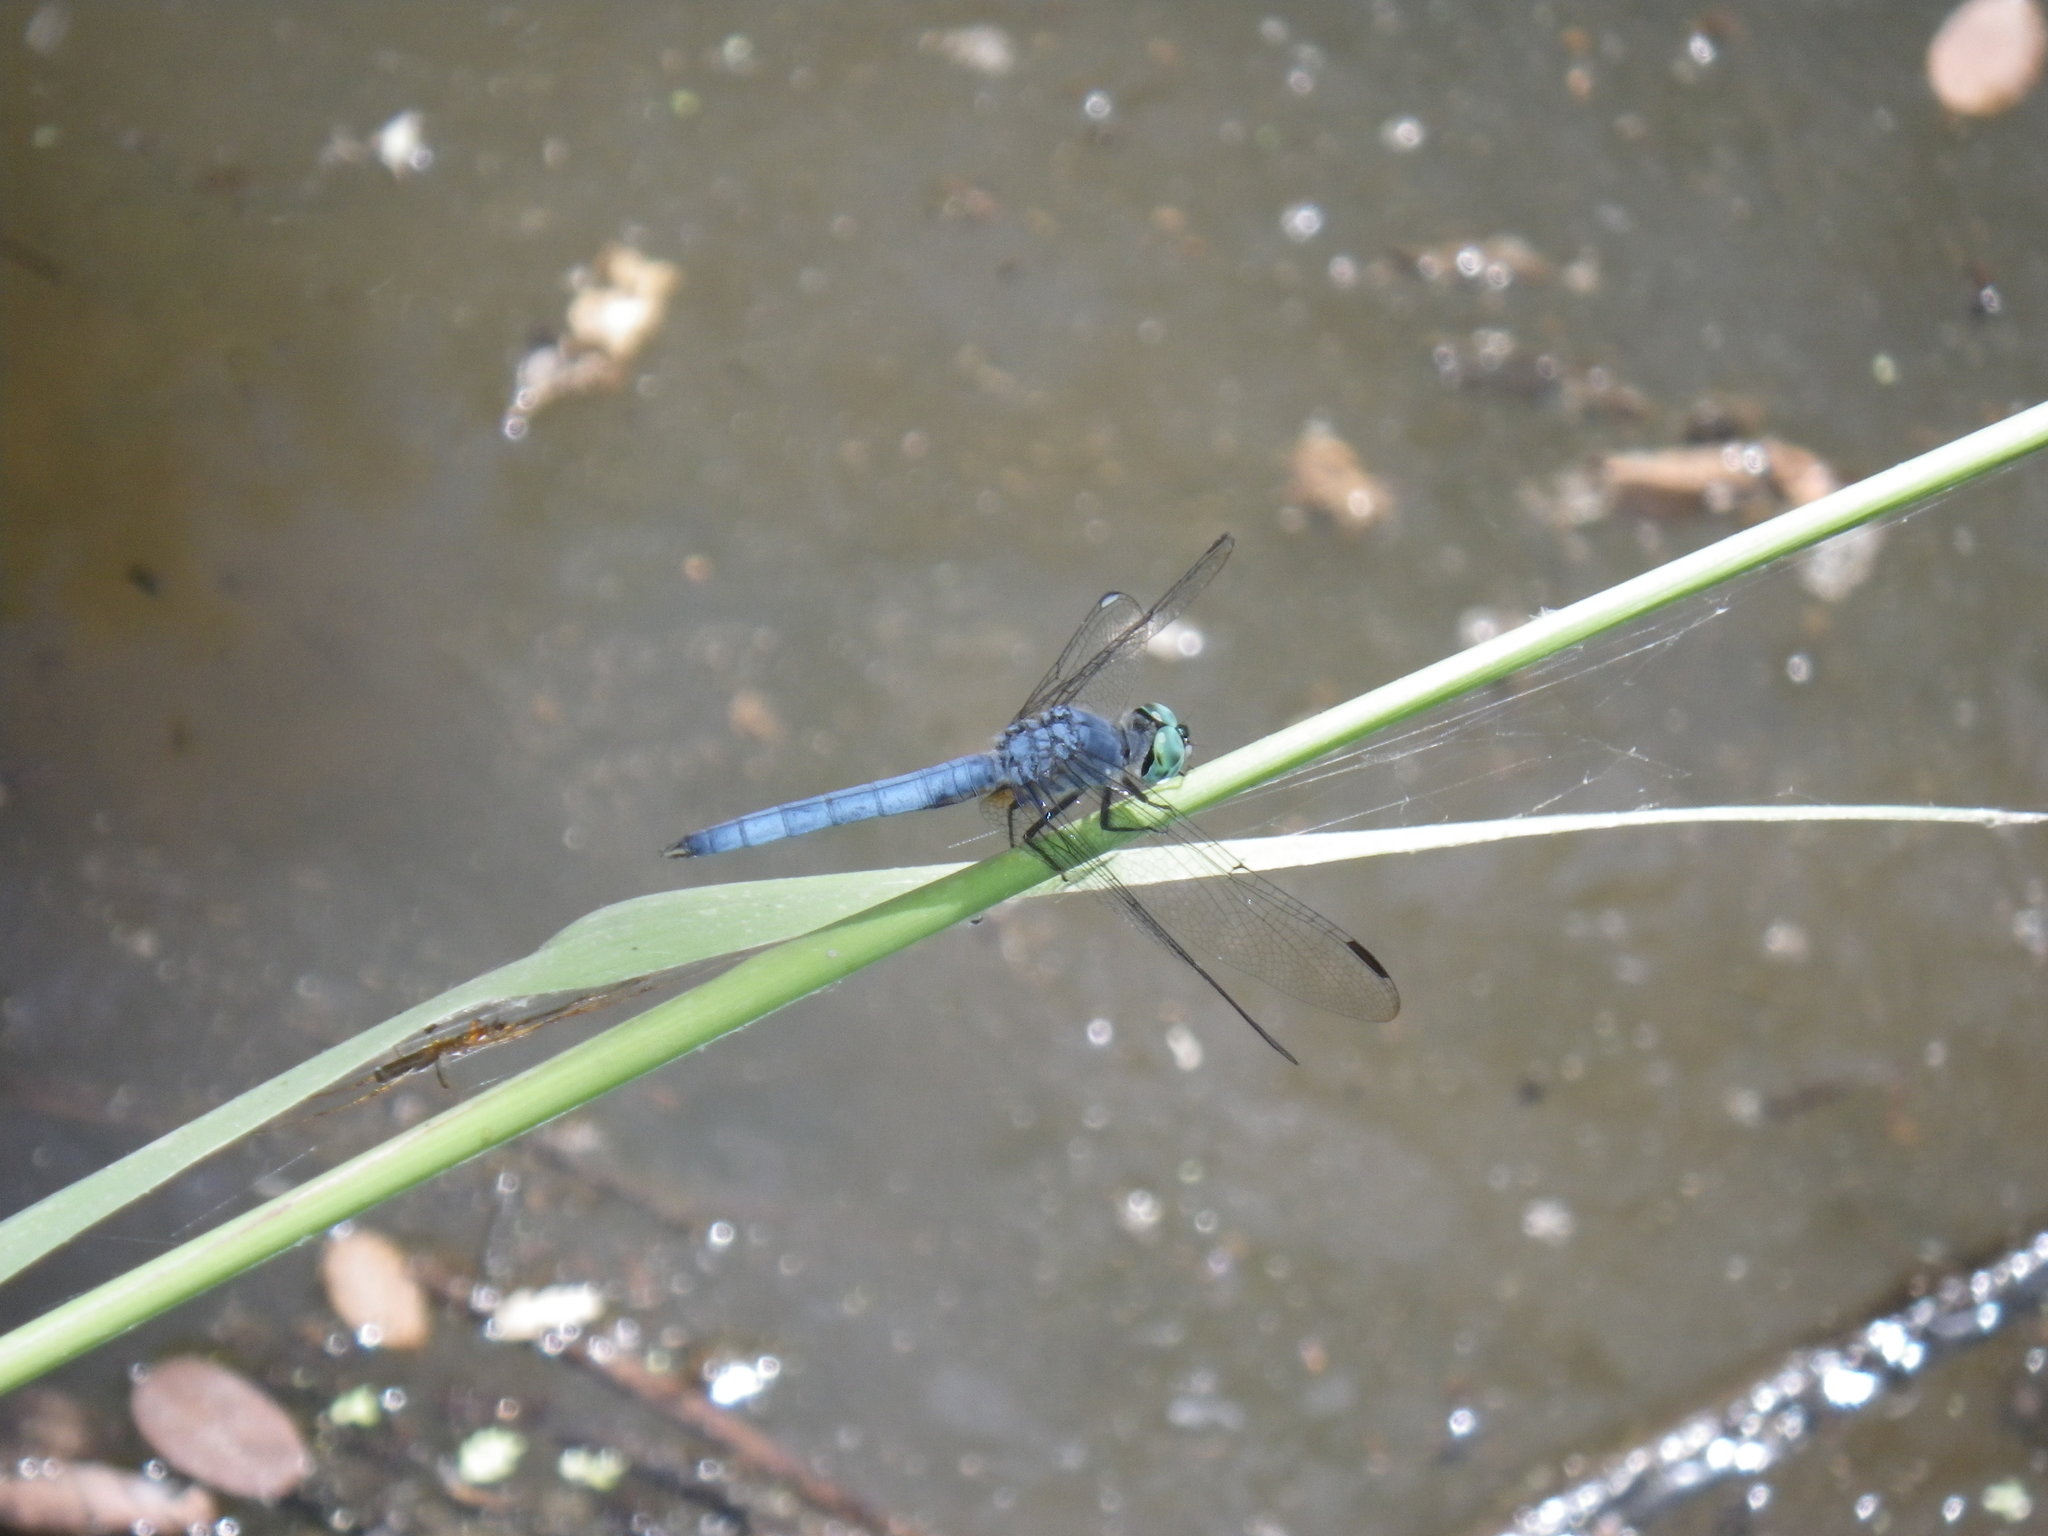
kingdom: Animalia
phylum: Arthropoda
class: Insecta
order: Odonata
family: Libellulidae
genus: Pachydiplax
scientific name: Pachydiplax longipennis
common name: Blue dasher
